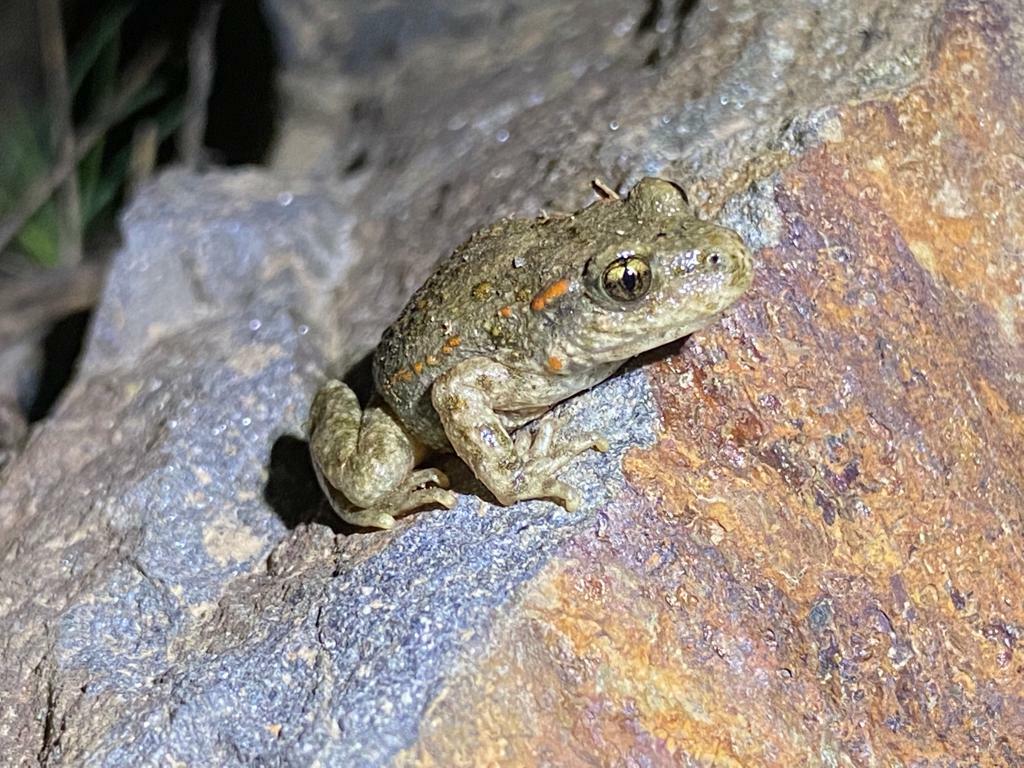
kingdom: Animalia
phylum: Chordata
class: Amphibia
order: Anura
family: Alytidae
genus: Alytes
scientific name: Alytes obstetricans
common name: Midwife toad
